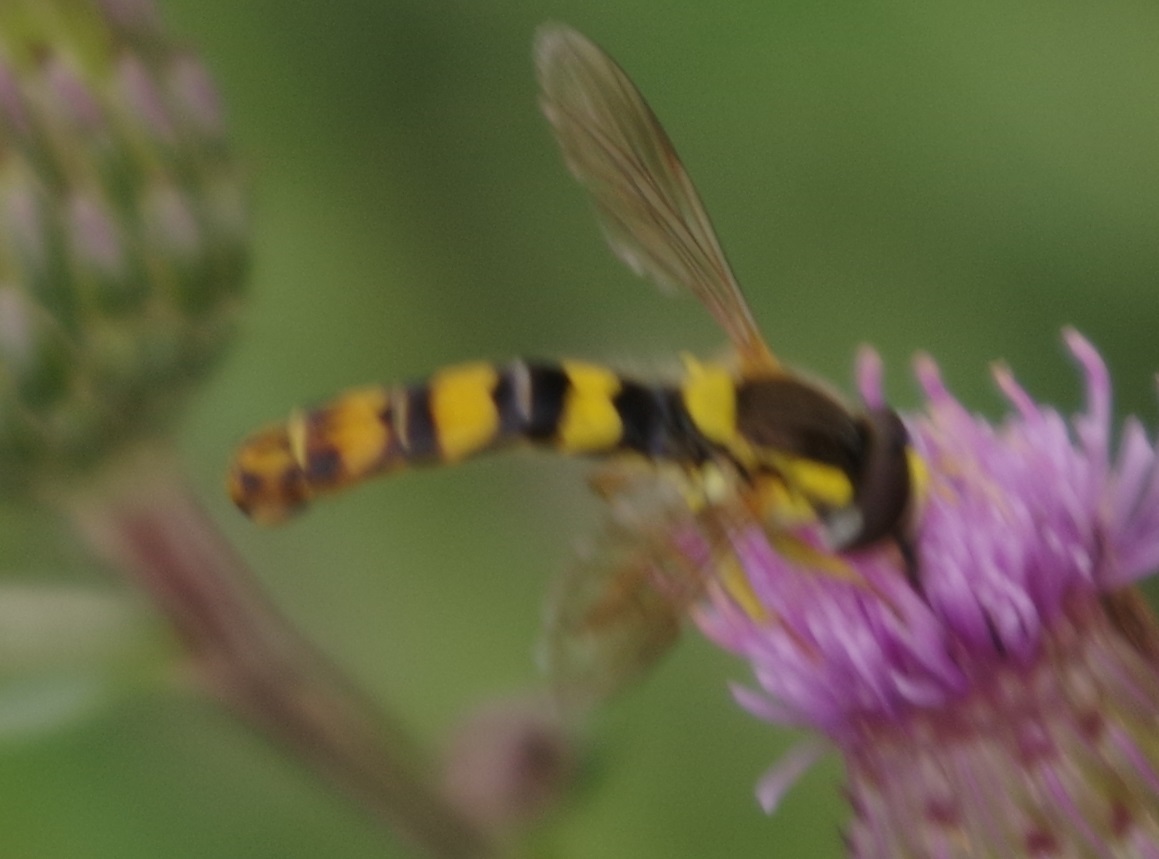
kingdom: Animalia
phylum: Arthropoda
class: Insecta
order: Diptera
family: Syrphidae
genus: Sphaerophoria
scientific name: Sphaerophoria scripta
